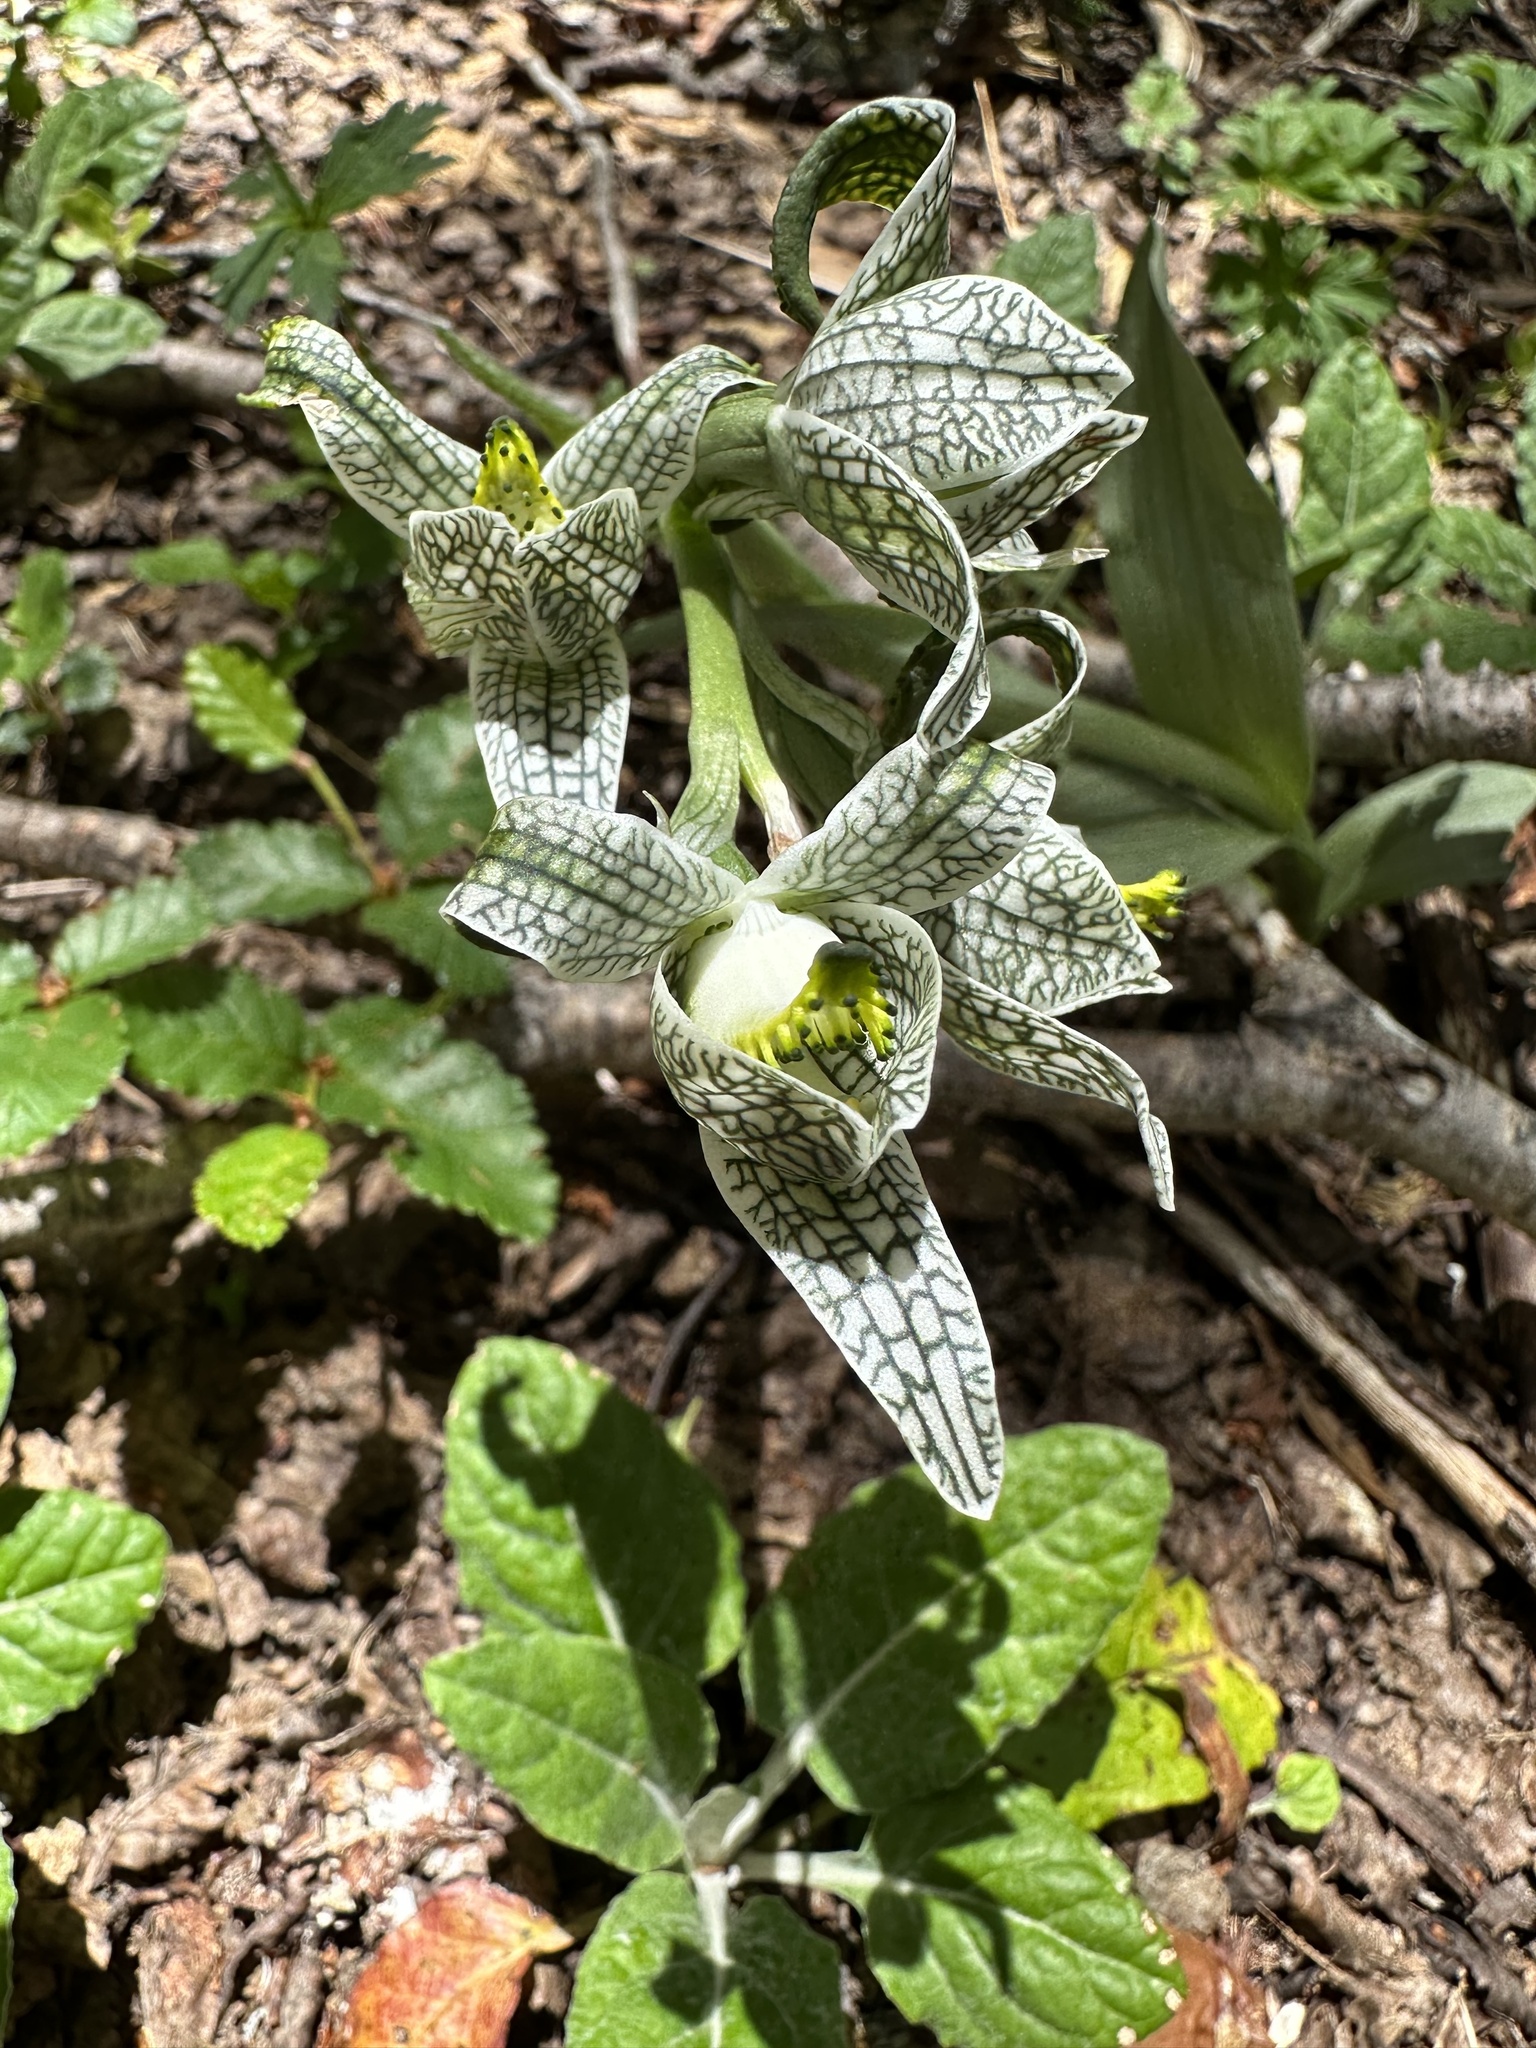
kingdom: Plantae
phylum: Tracheophyta
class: Liliopsida
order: Asparagales
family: Orchidaceae
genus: Chloraea
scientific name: Chloraea magellanica
